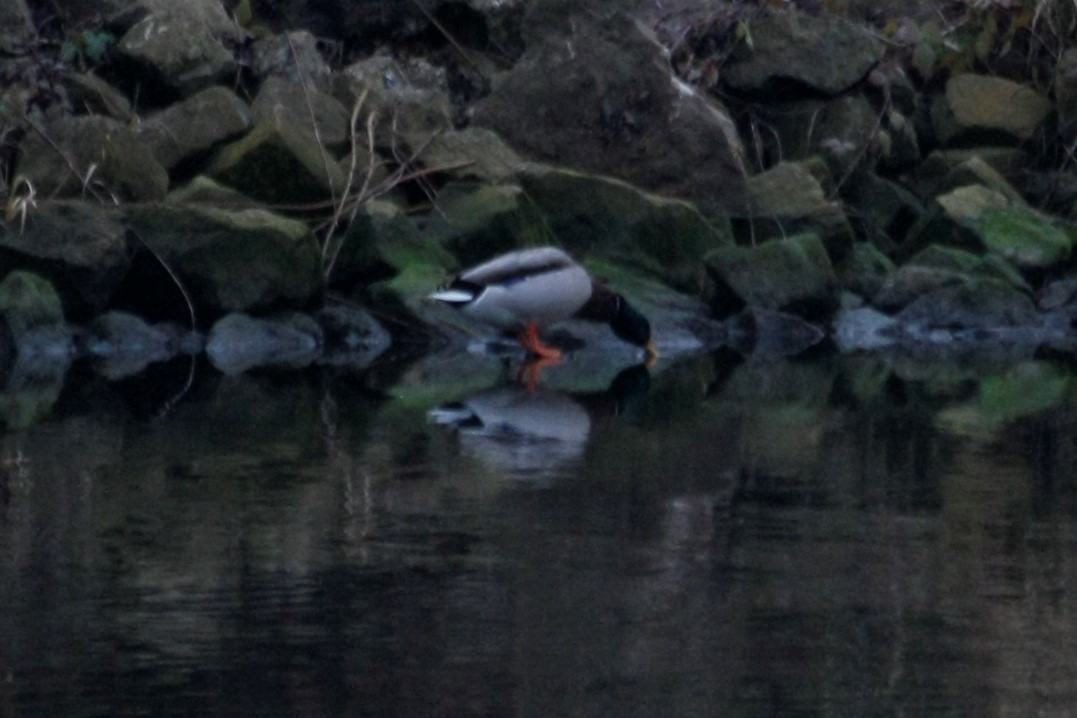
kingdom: Animalia
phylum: Chordata
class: Aves
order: Anseriformes
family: Anatidae
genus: Anas
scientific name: Anas platyrhynchos
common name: Mallard
